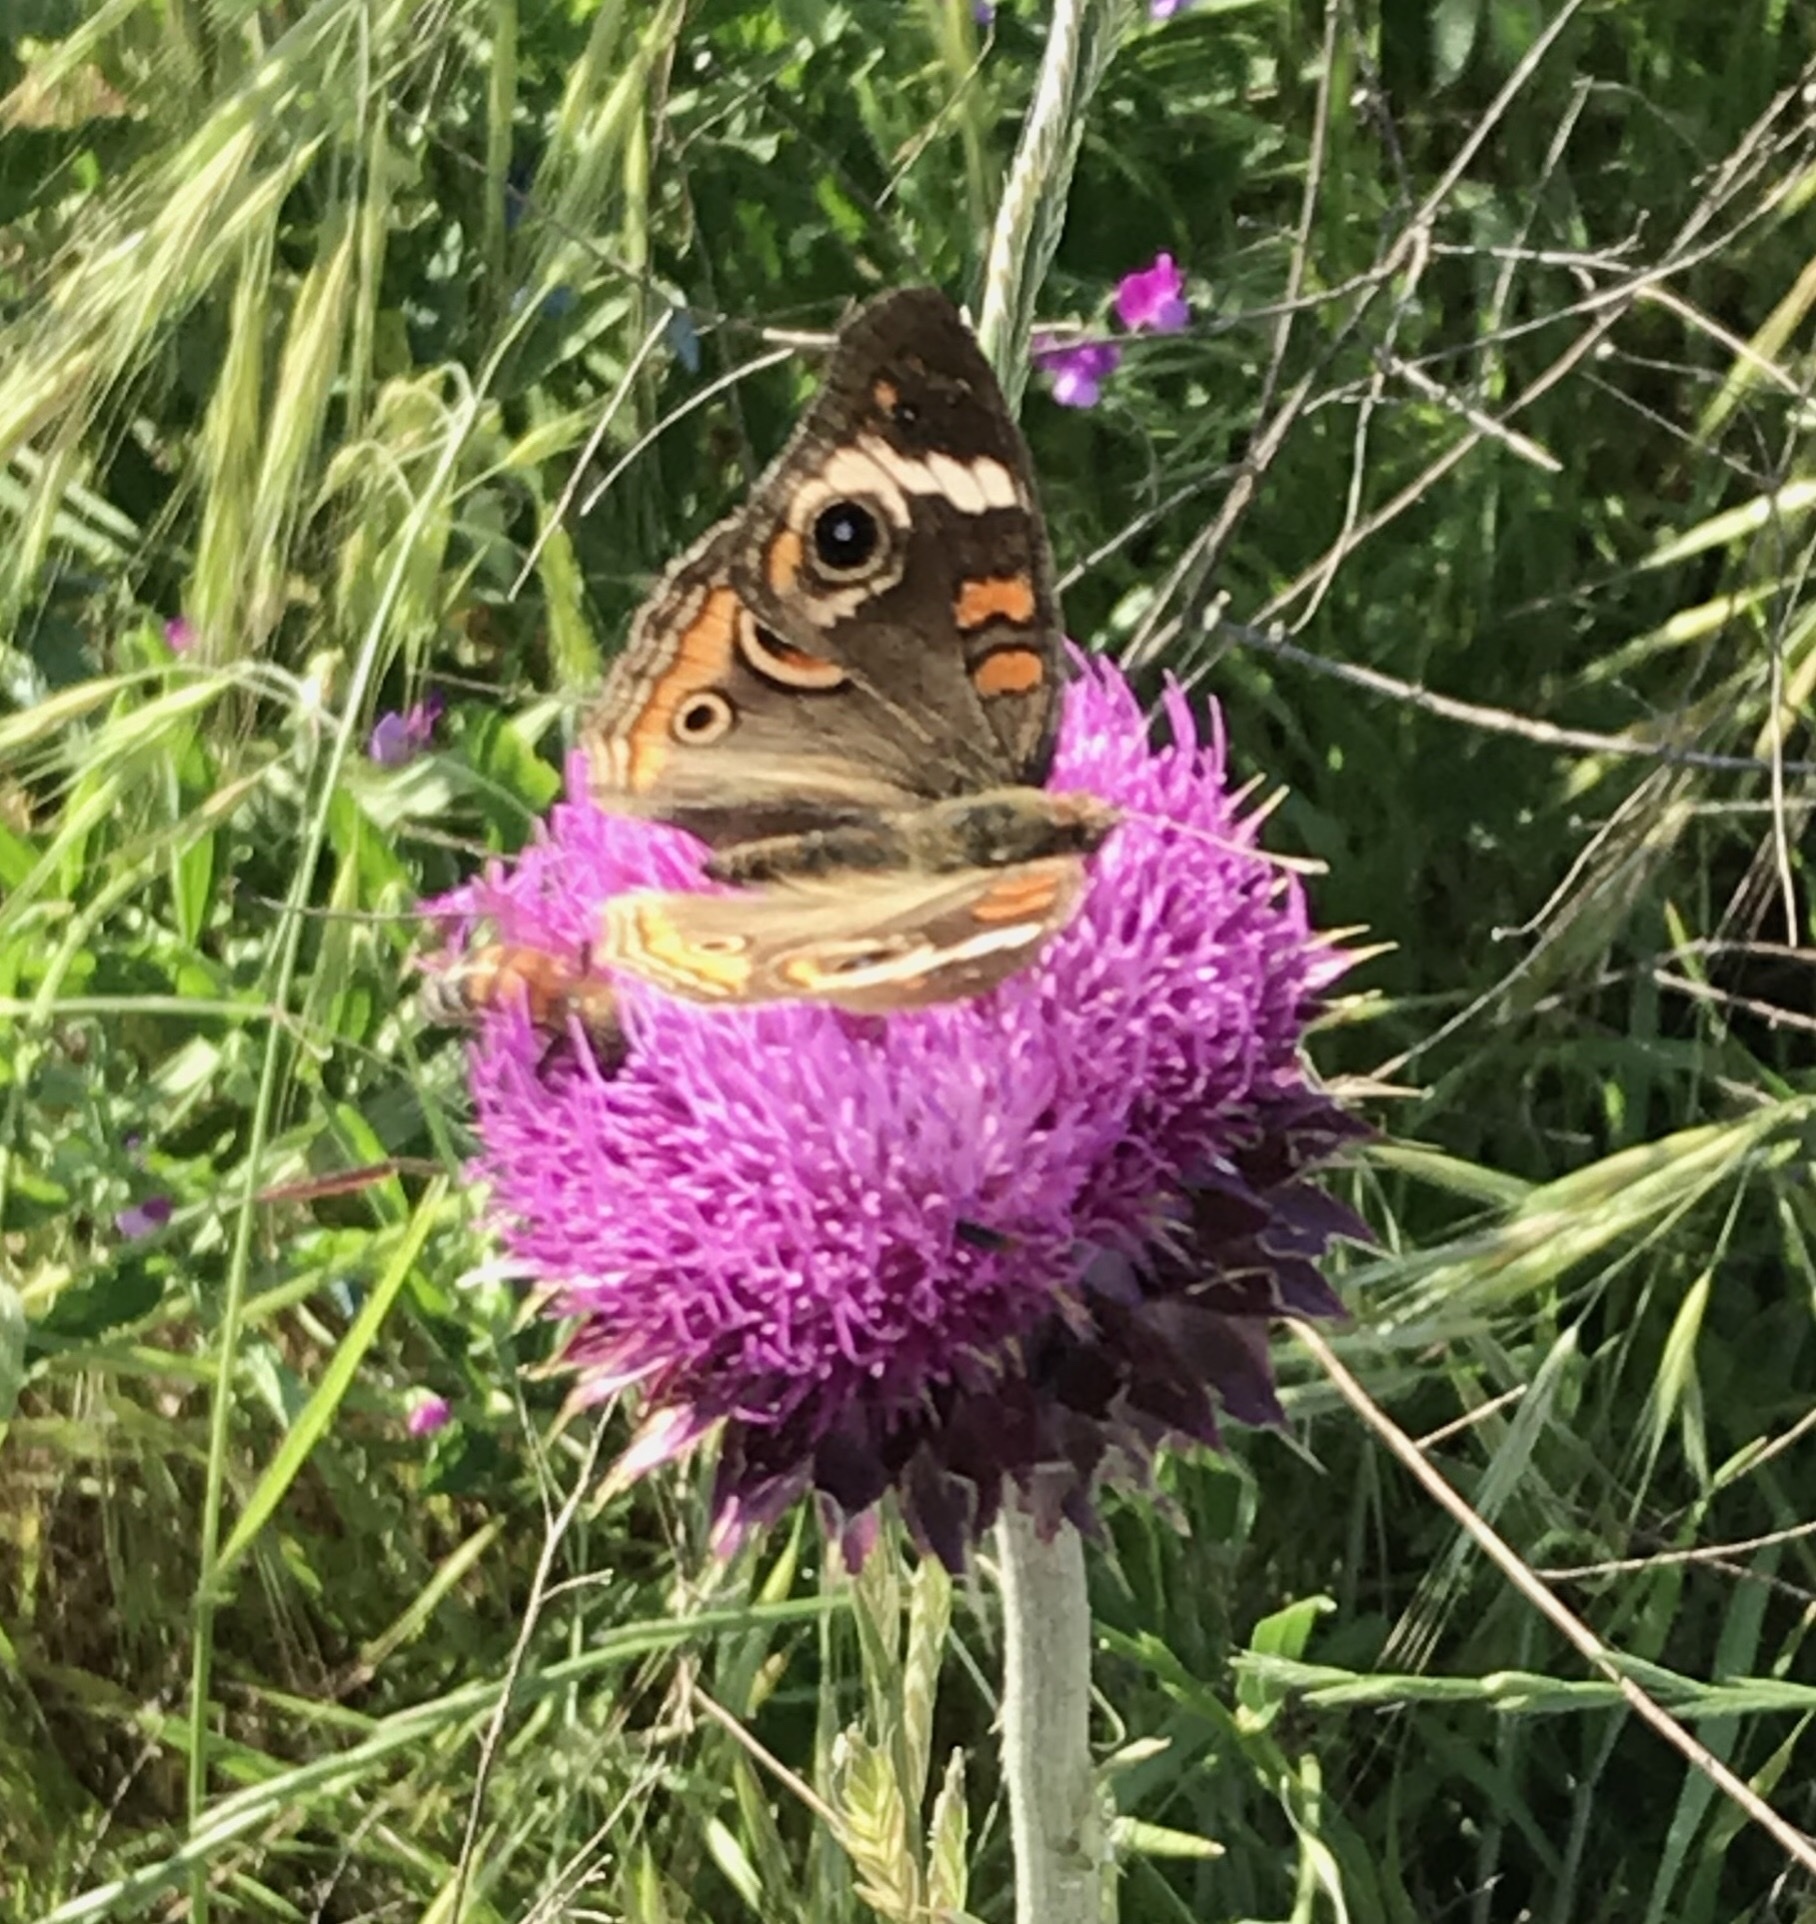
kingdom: Animalia
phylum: Arthropoda
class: Insecta
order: Lepidoptera
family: Nymphalidae
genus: Junonia
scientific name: Junonia coenia
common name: Common buckeye
